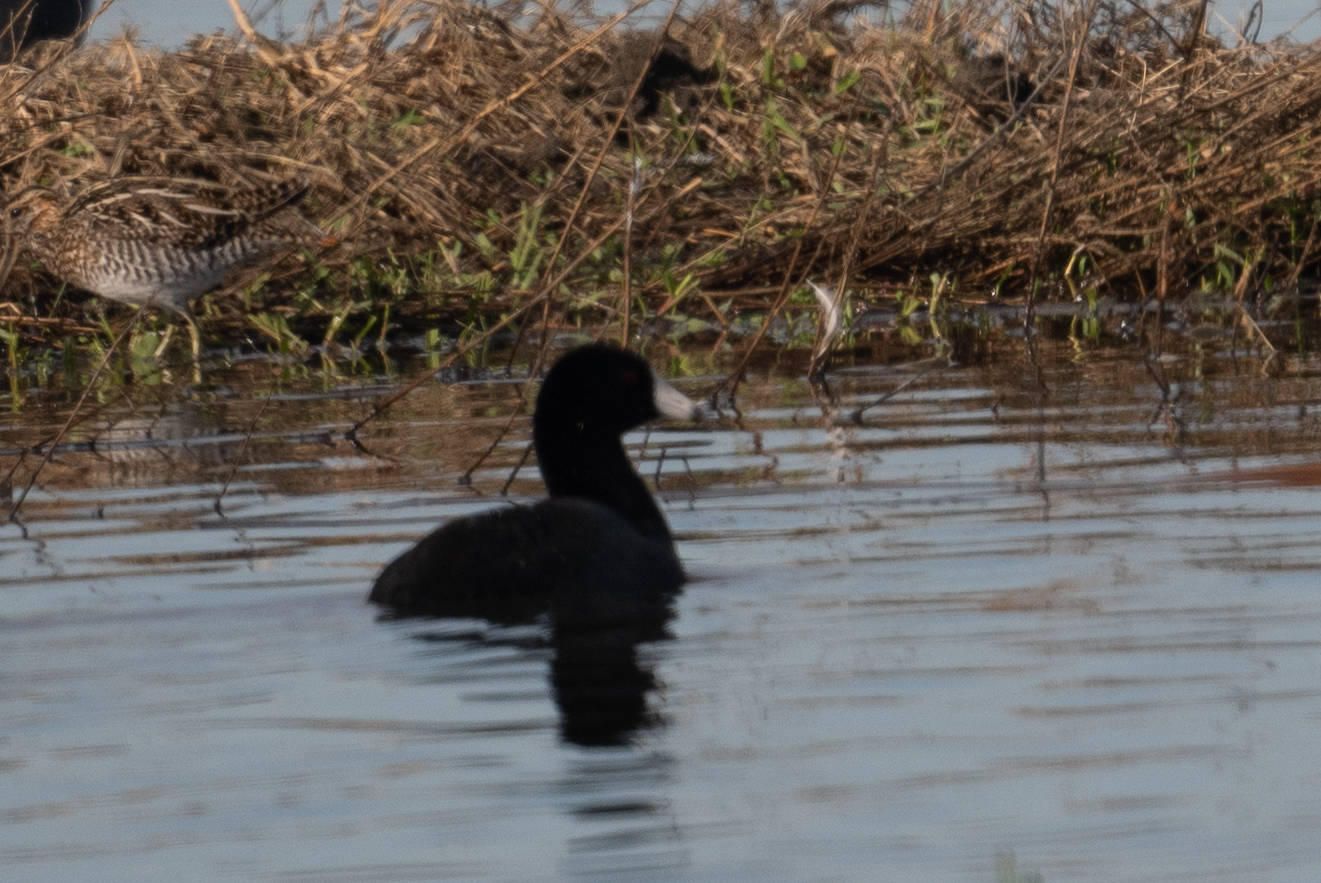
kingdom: Animalia
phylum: Chordata
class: Aves
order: Gruiformes
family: Rallidae
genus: Fulica
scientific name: Fulica americana
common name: American coot
